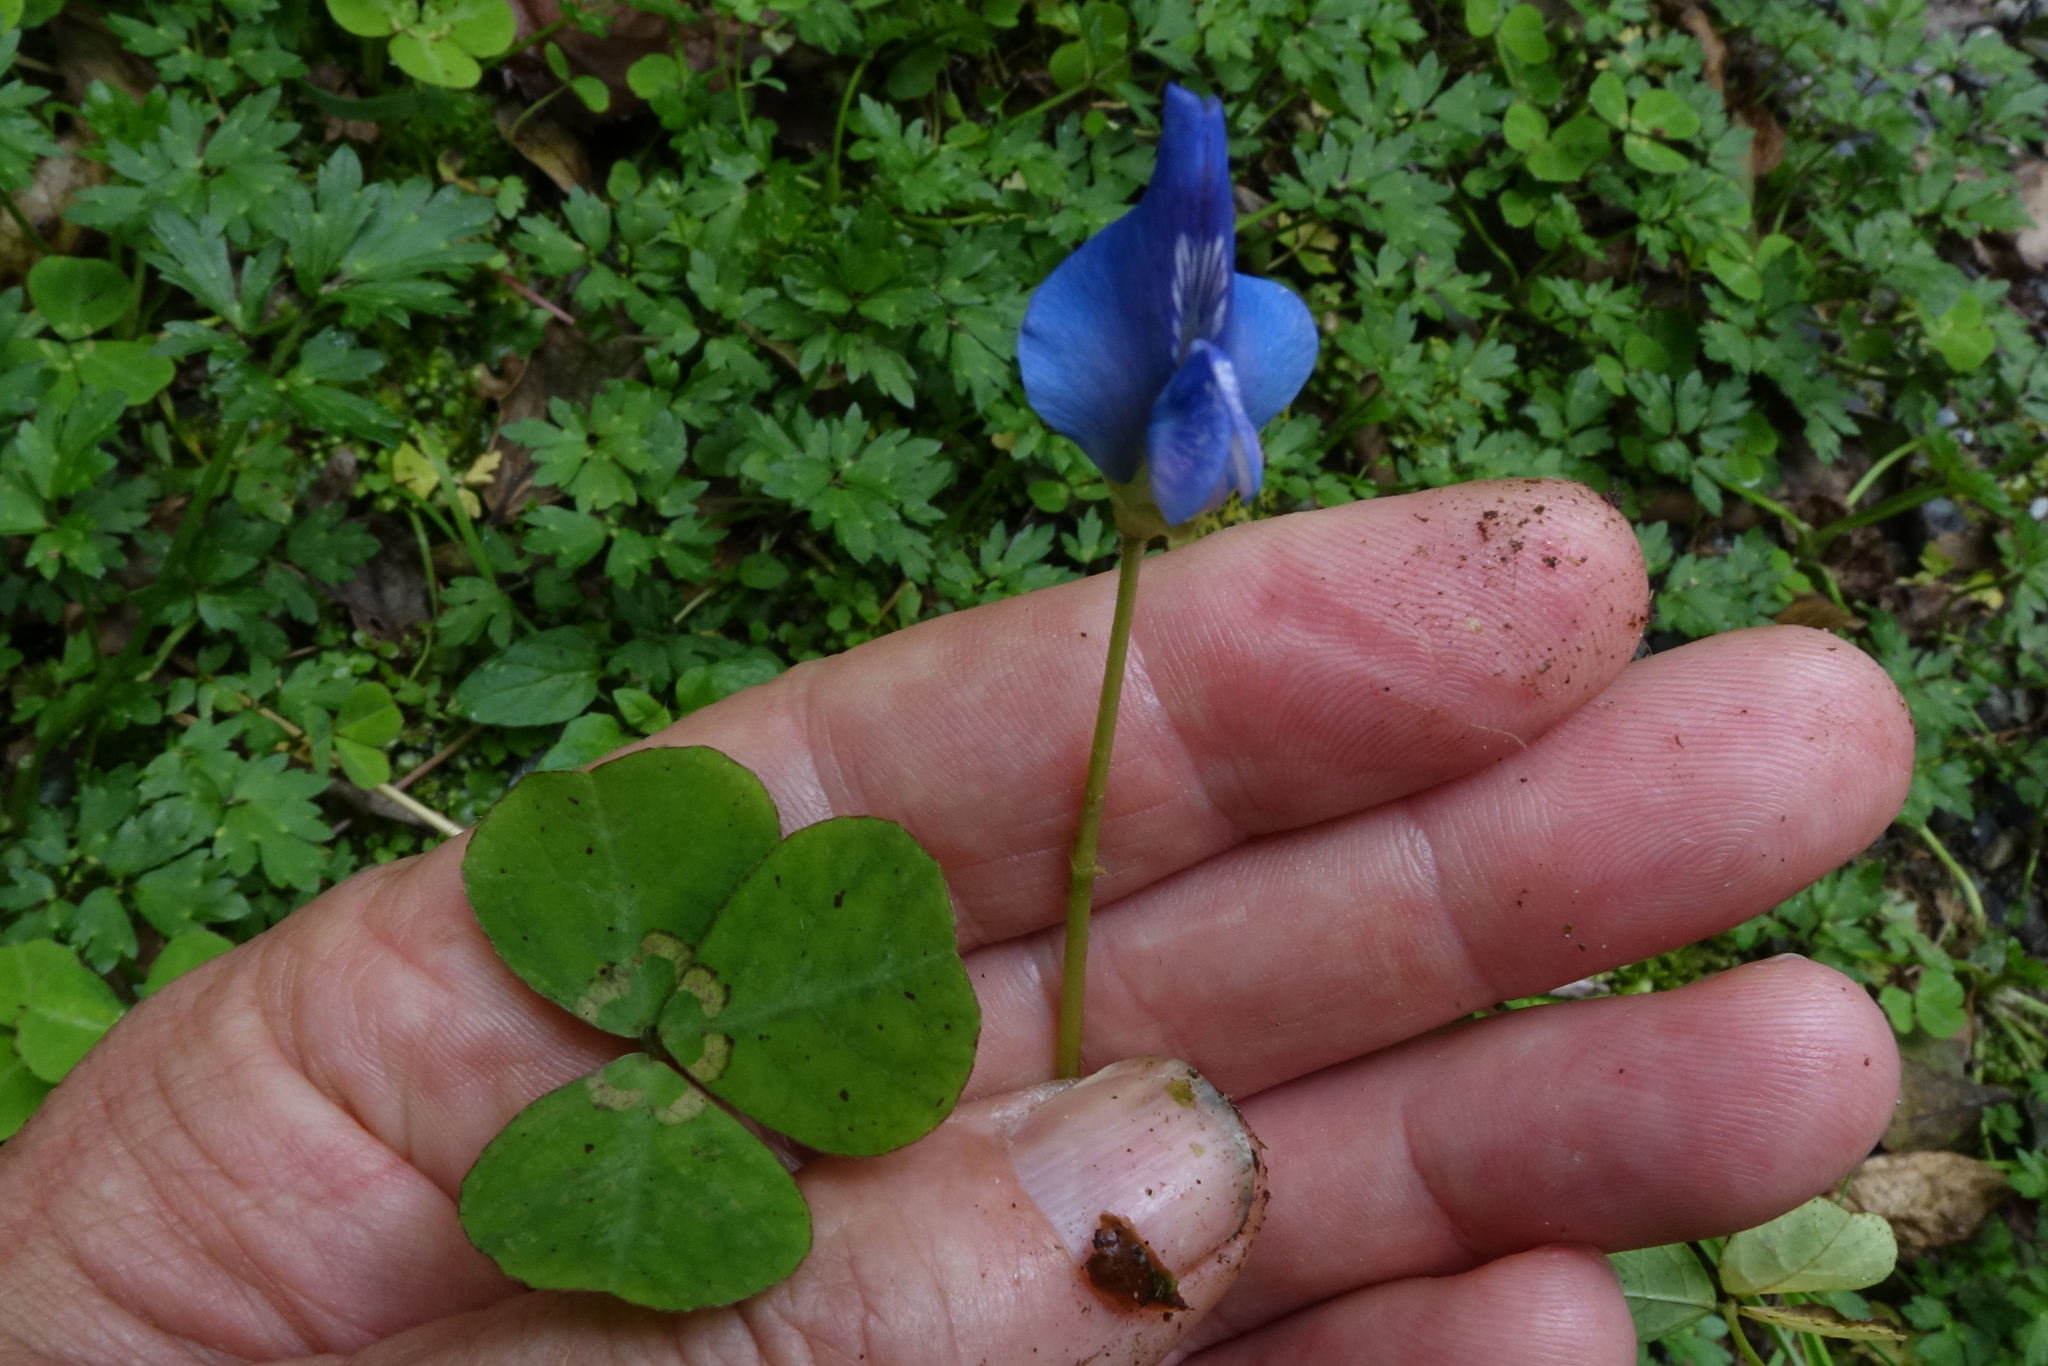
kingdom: Plantae
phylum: Tracheophyta
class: Magnoliopsida
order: Fabales
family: Fabaceae
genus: Parochetus
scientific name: Parochetus communis
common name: Blue oxalis
